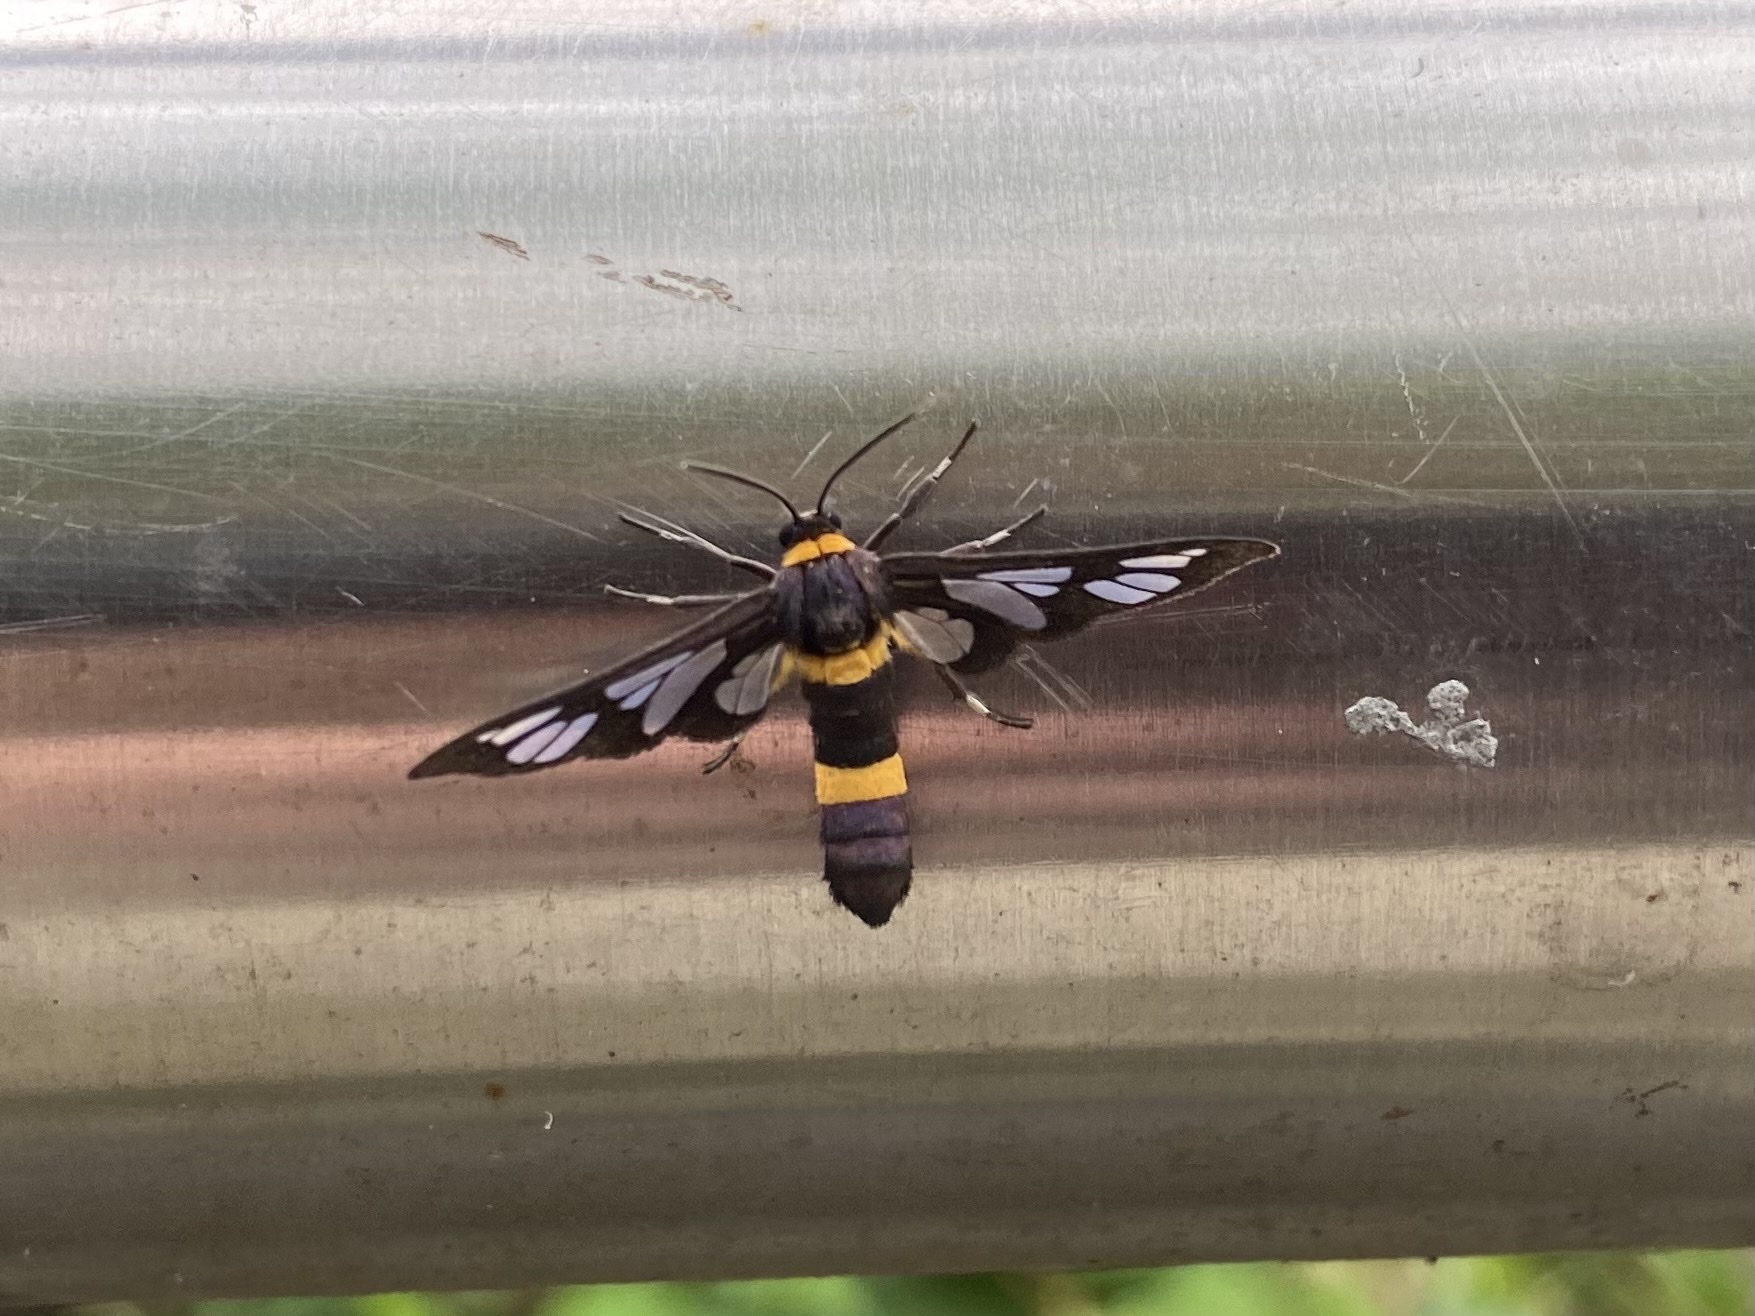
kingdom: Animalia
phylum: Arthropoda
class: Insecta
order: Lepidoptera
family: Erebidae
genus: Syntomoides
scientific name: Syntomoides imaon
